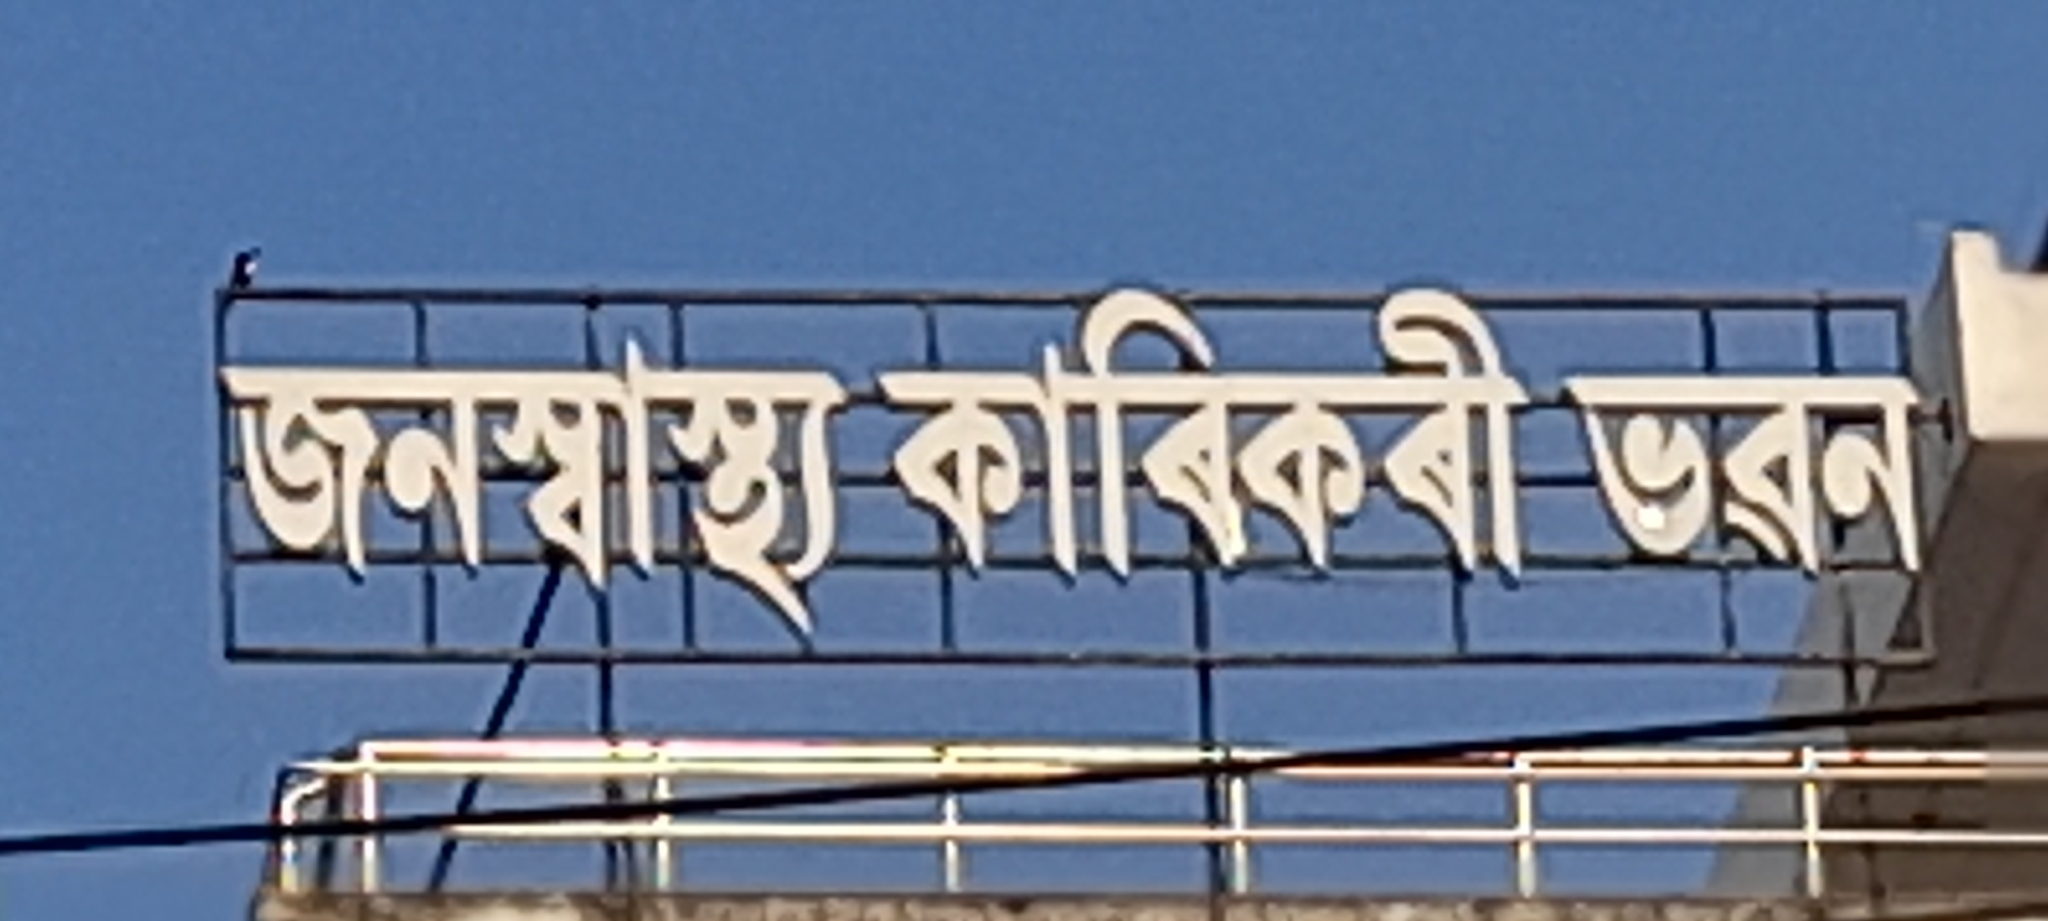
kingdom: Animalia
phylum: Chordata
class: Aves
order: Coraciiformes
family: Alcedinidae
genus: Halcyon
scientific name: Halcyon smyrnensis
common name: White-throated kingfisher
